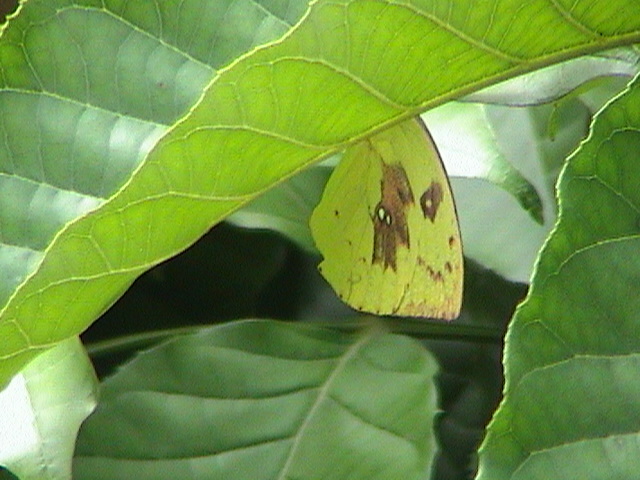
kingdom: Animalia
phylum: Arthropoda
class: Insecta
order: Lepidoptera
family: Pieridae
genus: Catopsilia
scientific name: Catopsilia pomona
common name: Common emigrant
